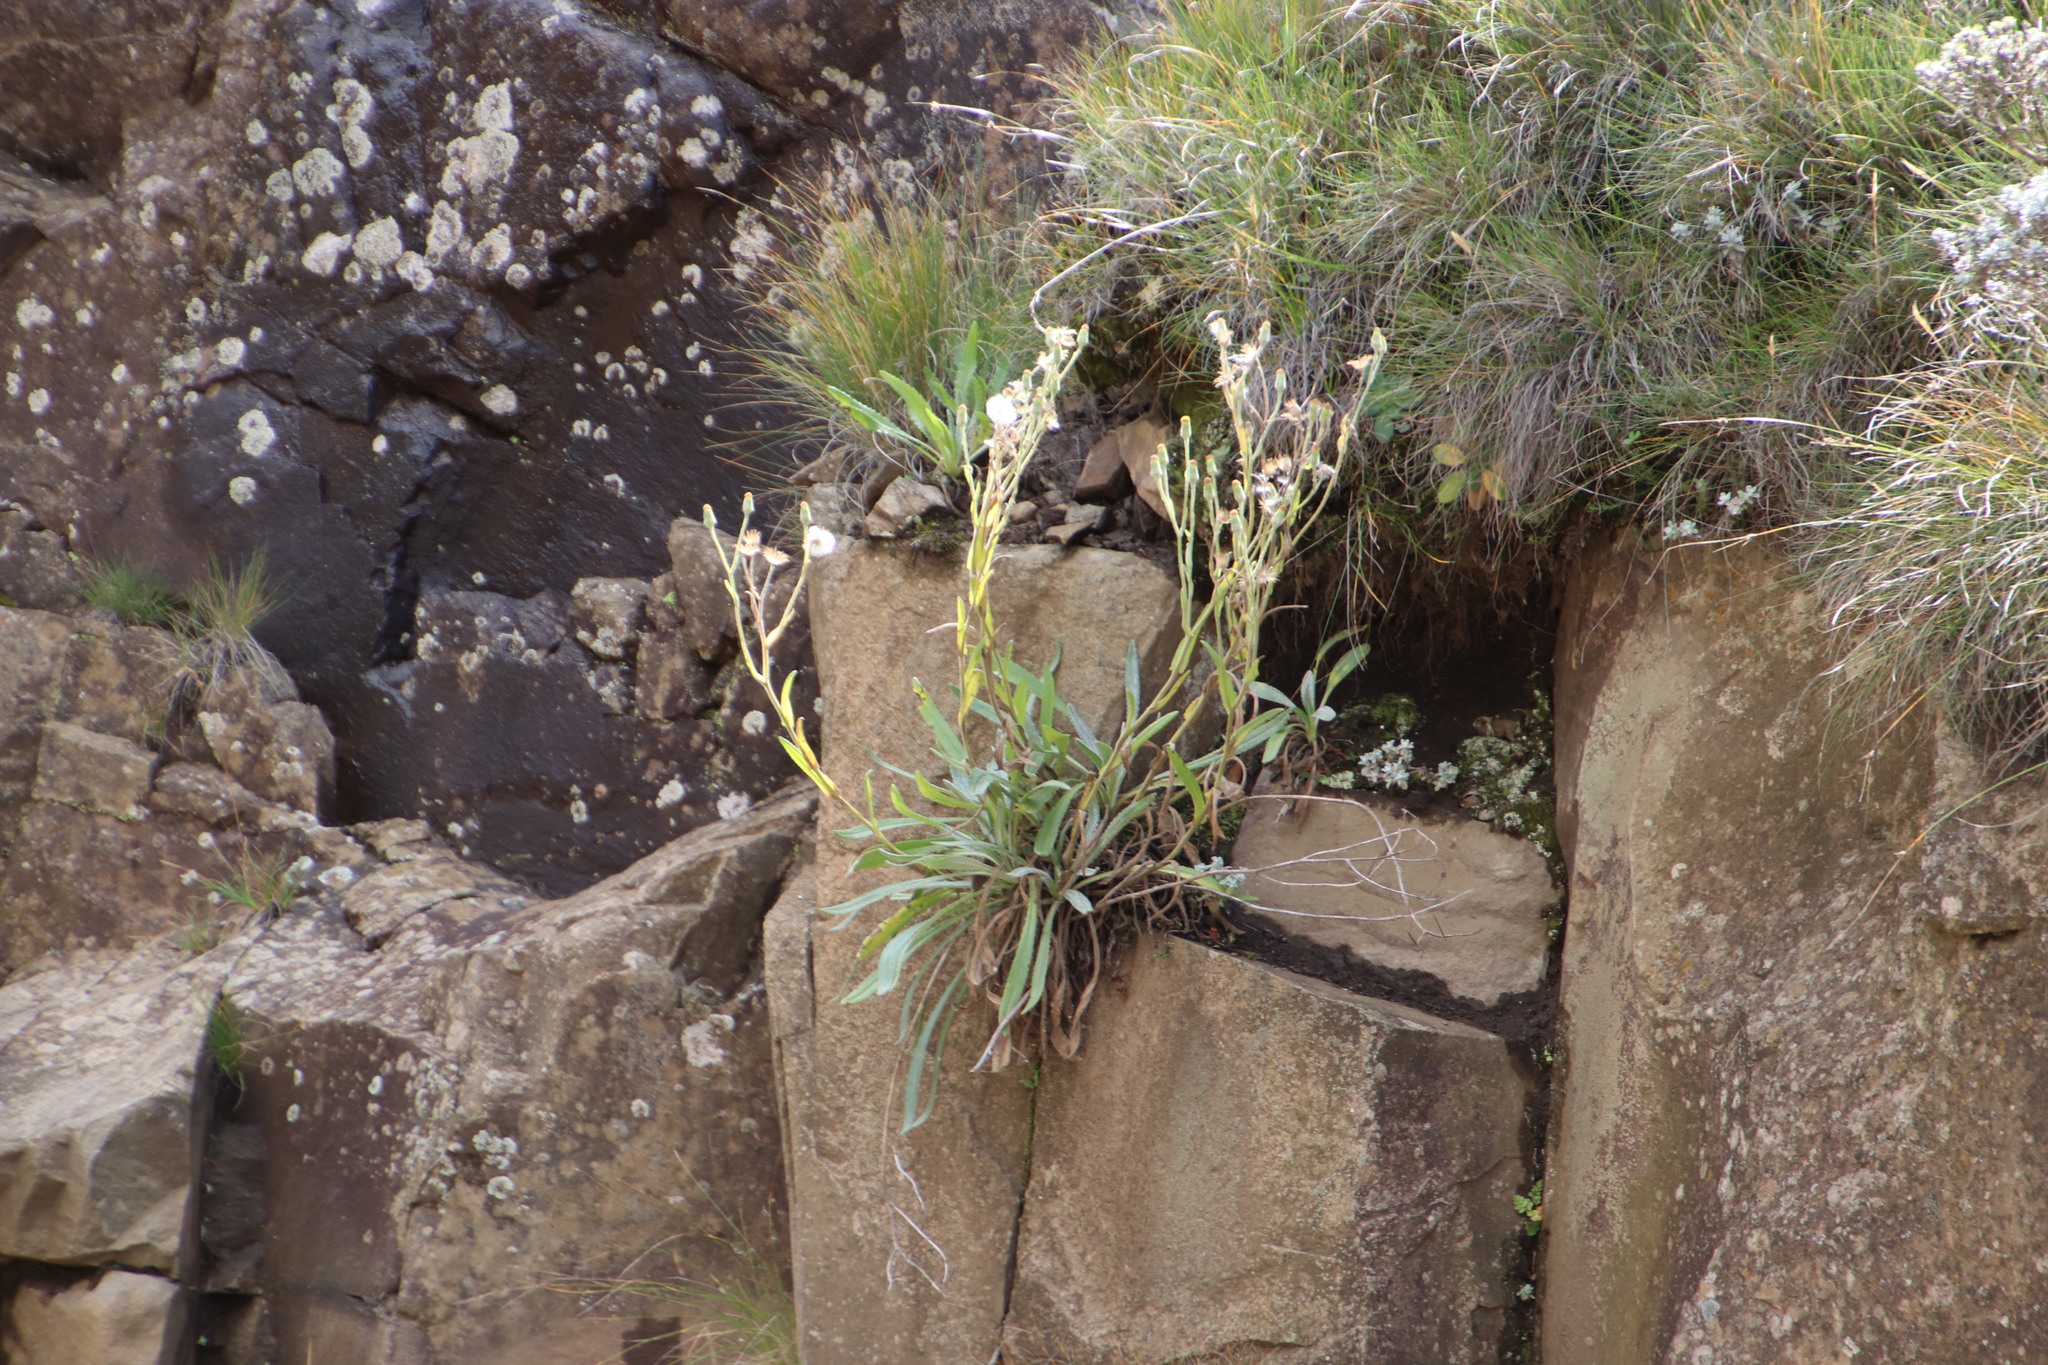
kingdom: Plantae
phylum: Tracheophyta
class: Magnoliopsida
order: Asterales
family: Asteraceae
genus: Senecio
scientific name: Senecio asperulus
